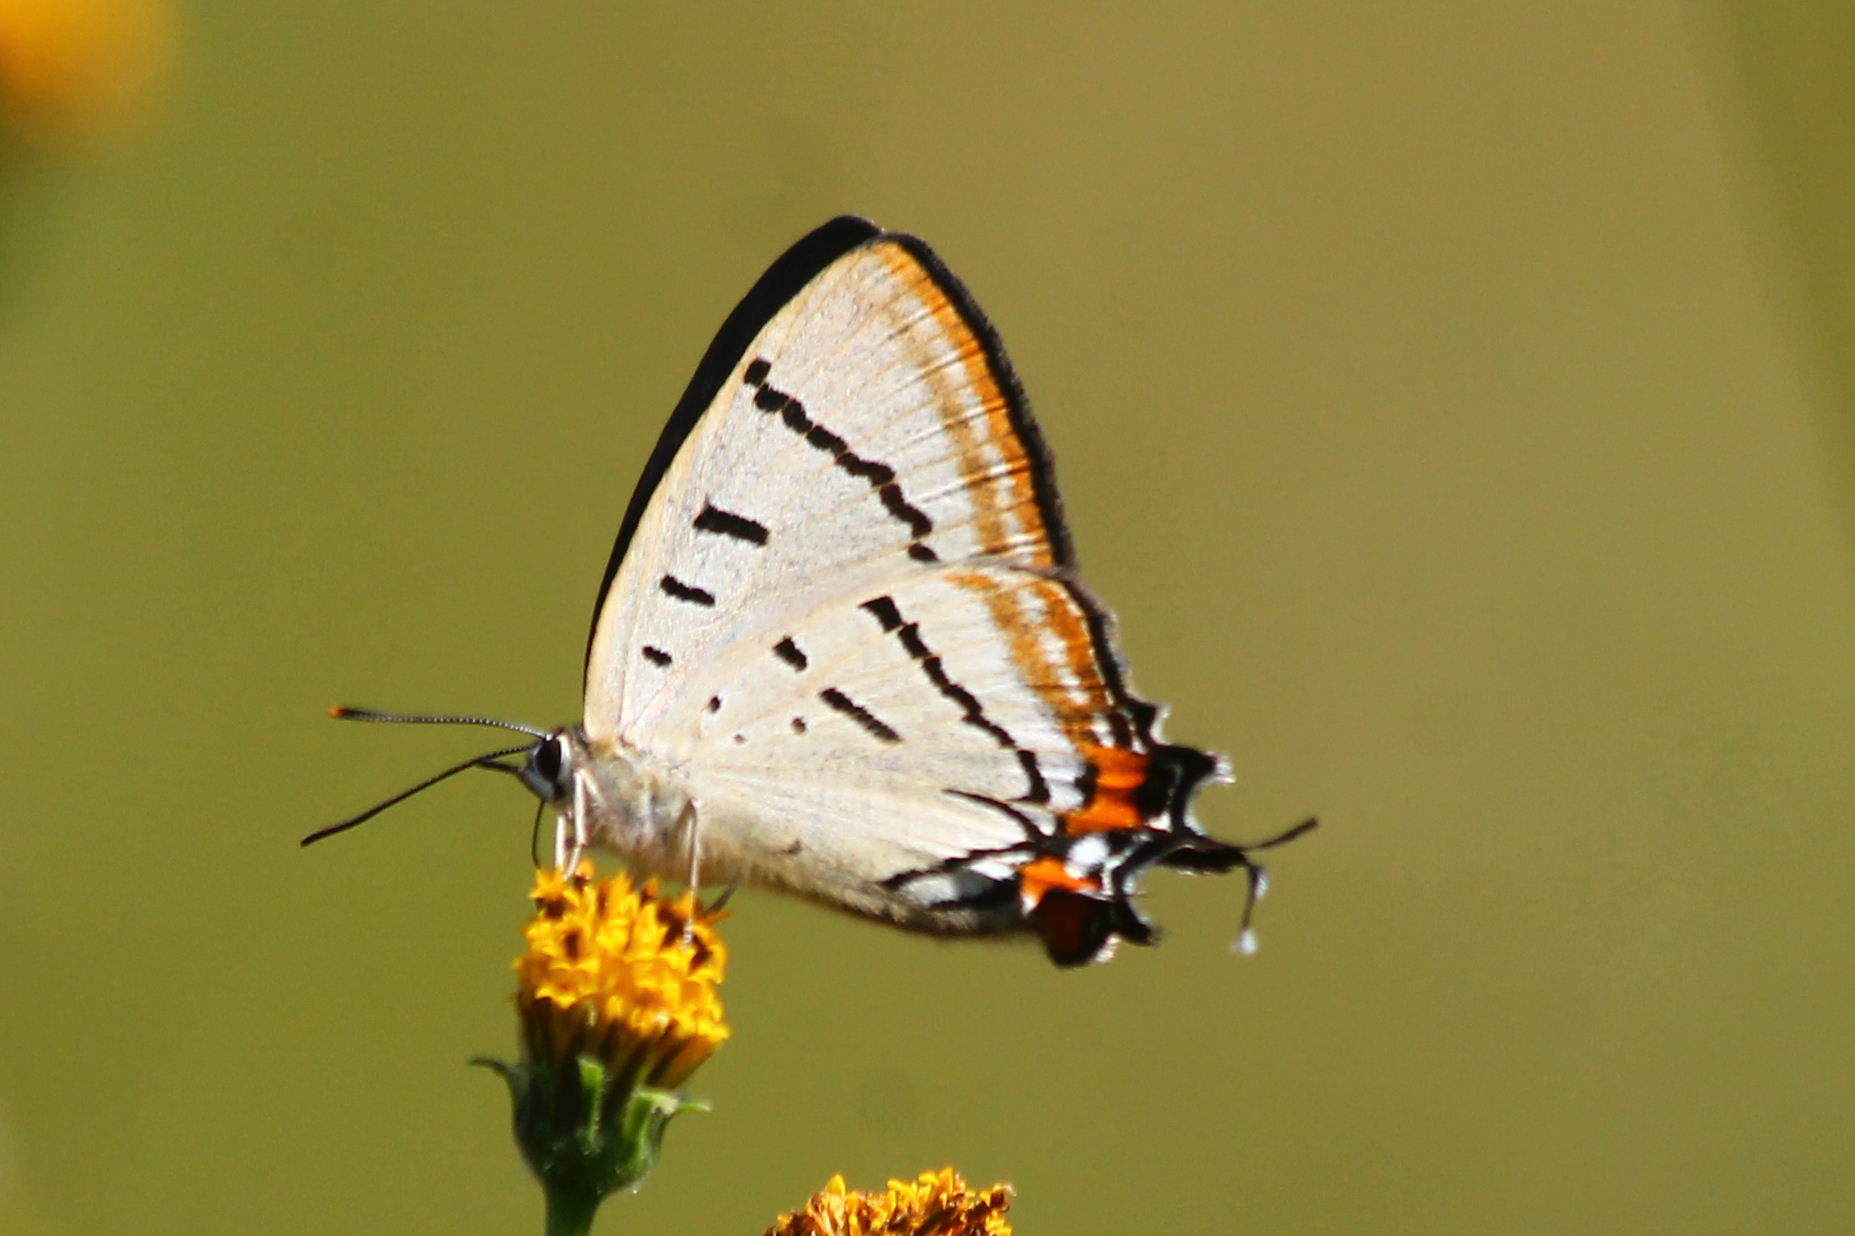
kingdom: Animalia
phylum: Arthropoda
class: Insecta
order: Lepidoptera
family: Lycaenidae
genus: Jalmenus
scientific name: Jalmenus evagoras
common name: Common imperial blue
